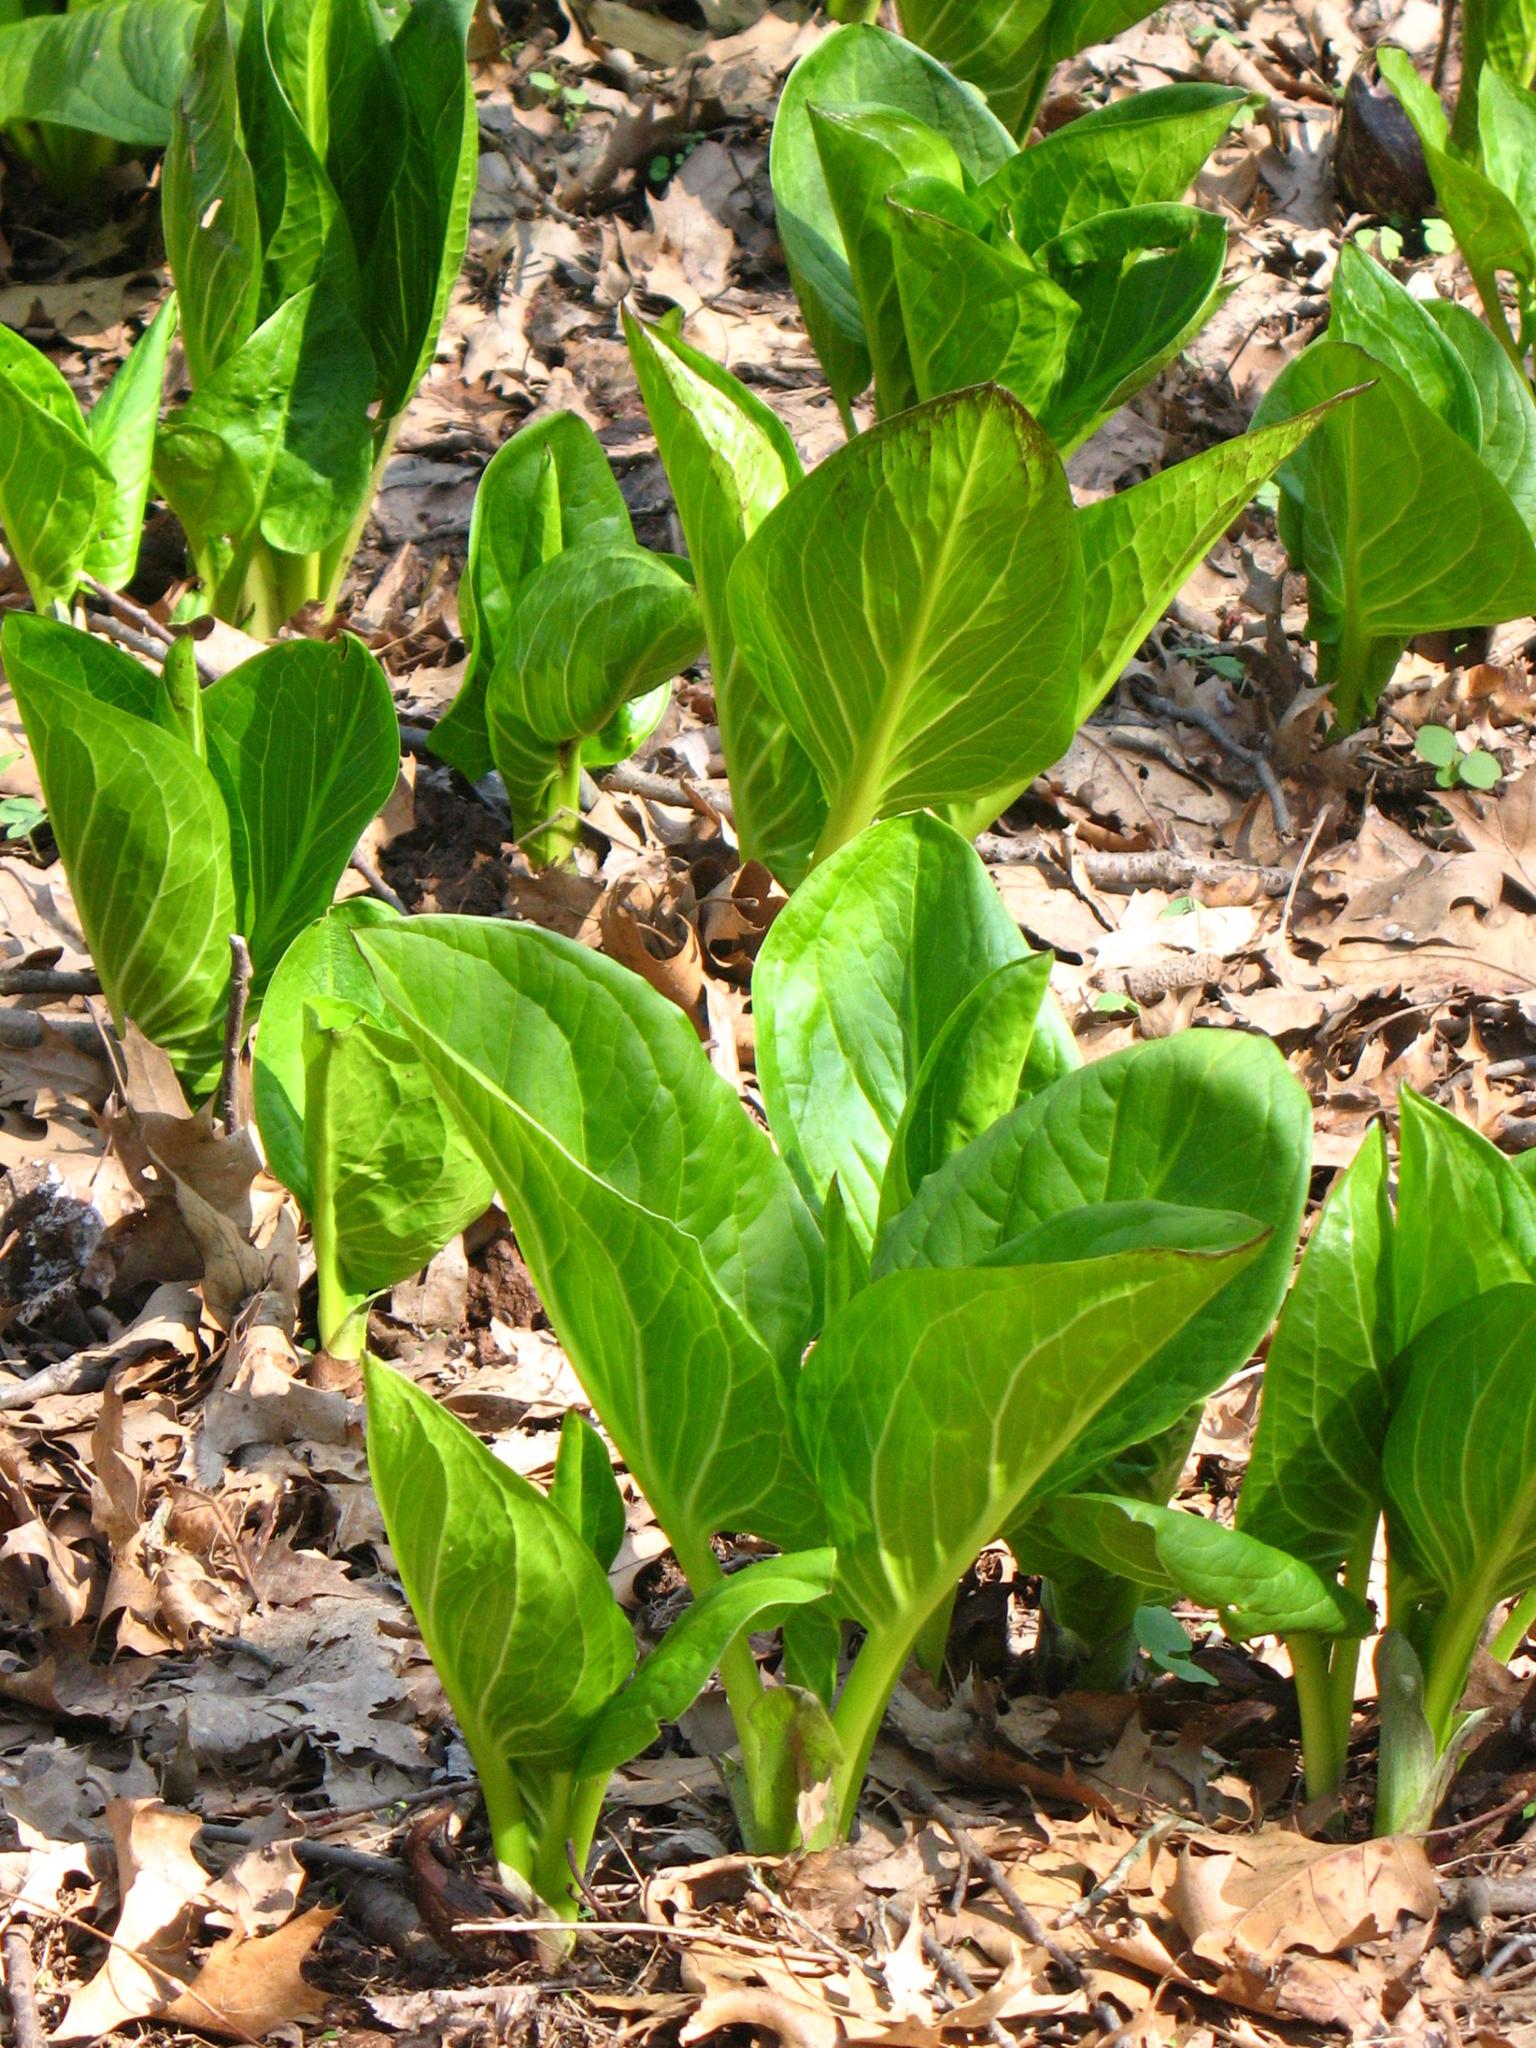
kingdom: Plantae
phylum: Tracheophyta
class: Liliopsida
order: Alismatales
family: Araceae
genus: Symplocarpus
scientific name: Symplocarpus foetidus
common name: Eastern skunk cabbage
